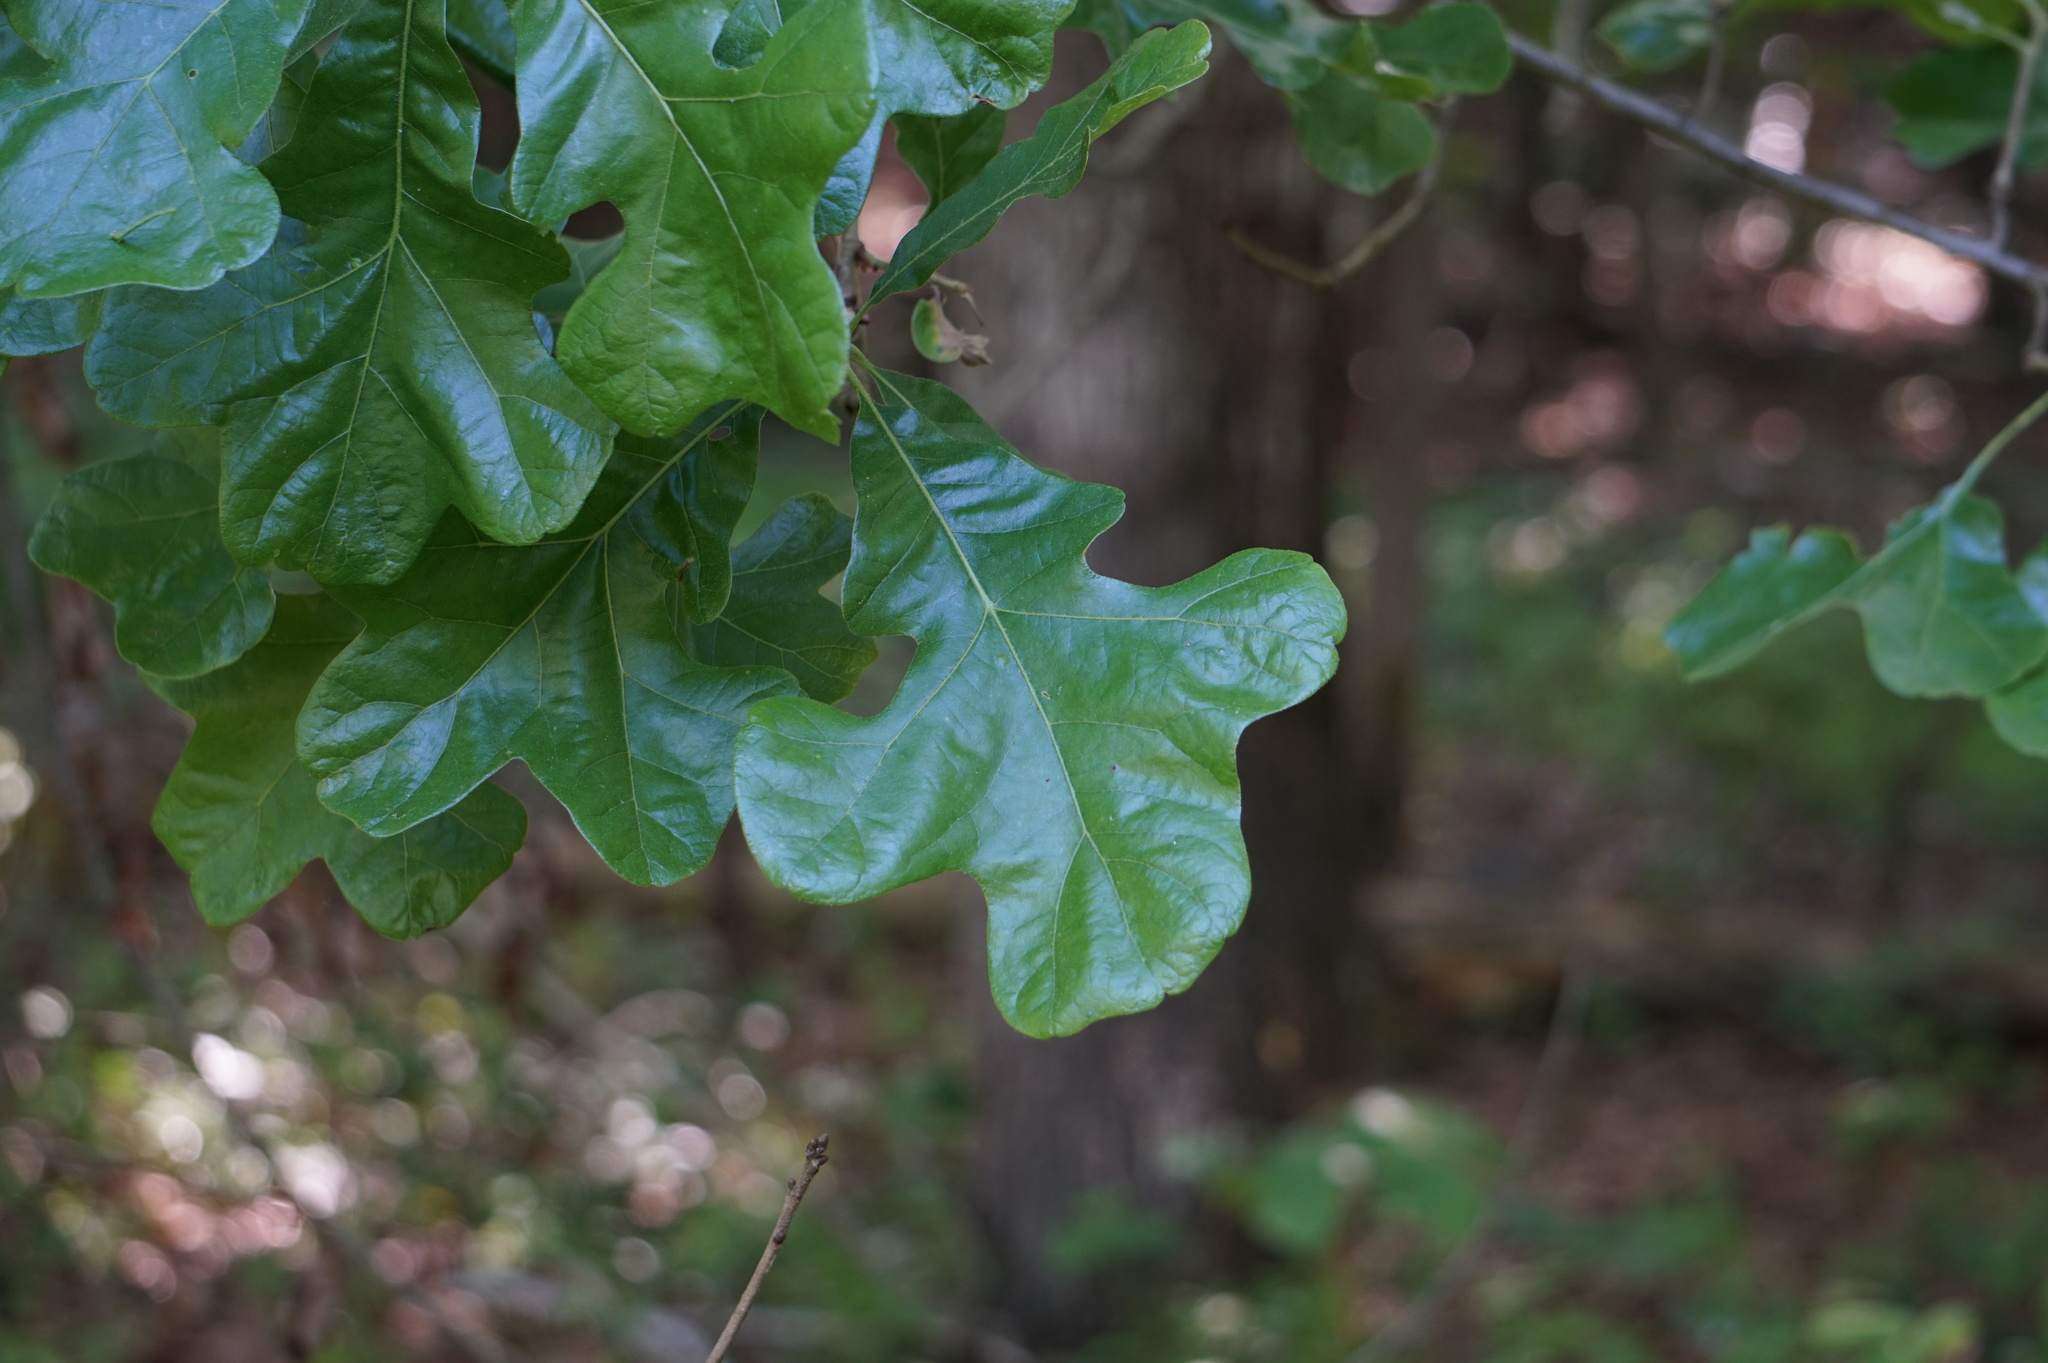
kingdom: Plantae
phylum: Tracheophyta
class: Magnoliopsida
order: Fagales
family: Fagaceae
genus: Quercus
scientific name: Quercus stellata
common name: Post oak
